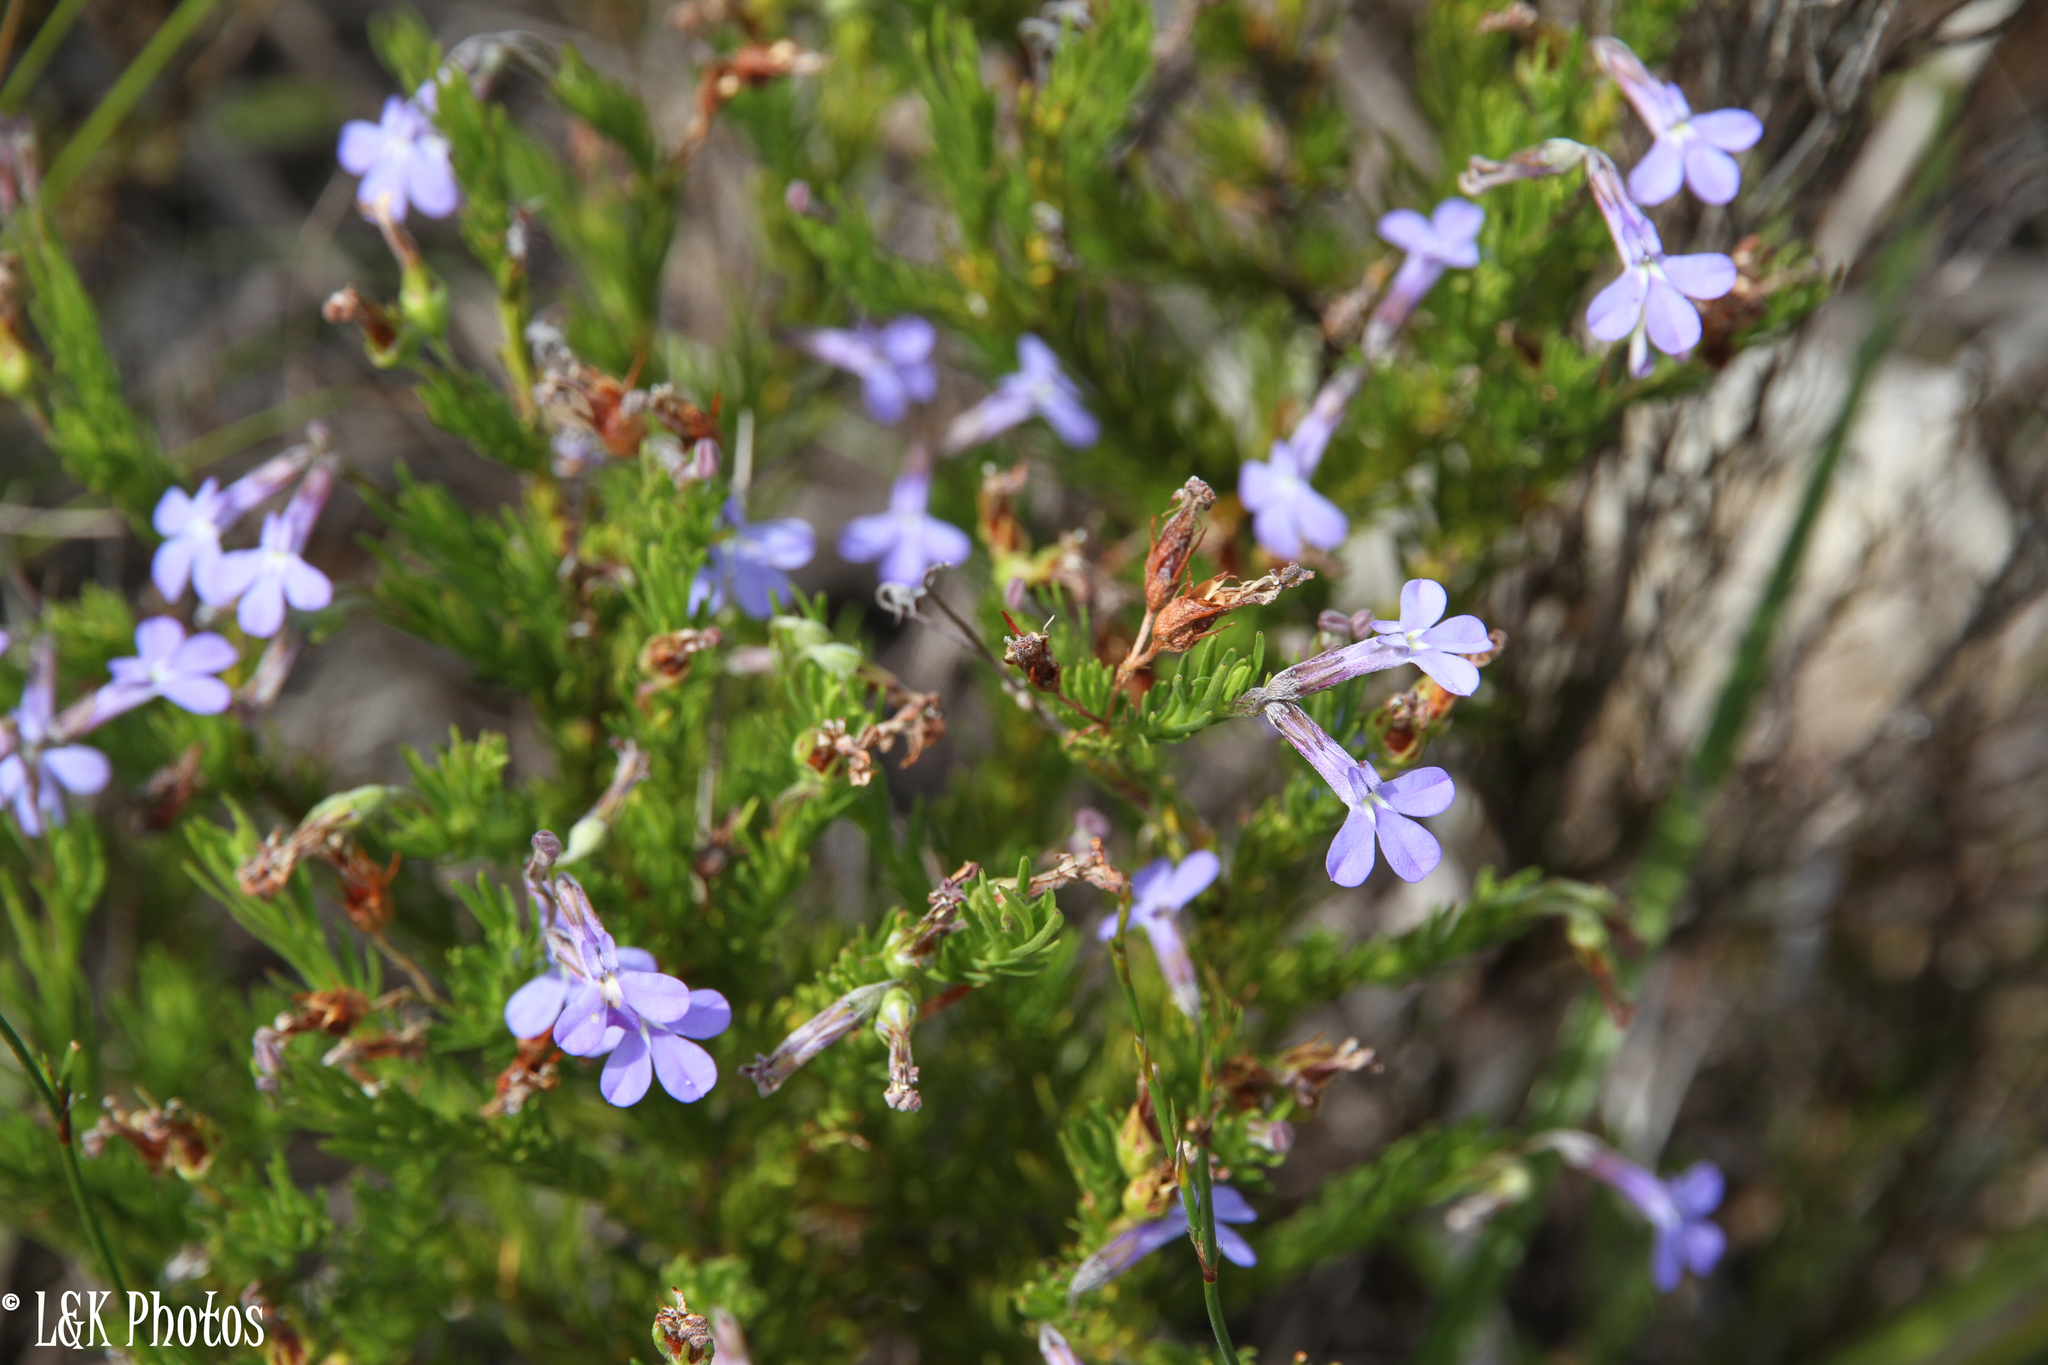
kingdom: Plantae
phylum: Tracheophyta
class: Magnoliopsida
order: Asterales
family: Campanulaceae
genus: Lobelia
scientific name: Lobelia pinifolia
